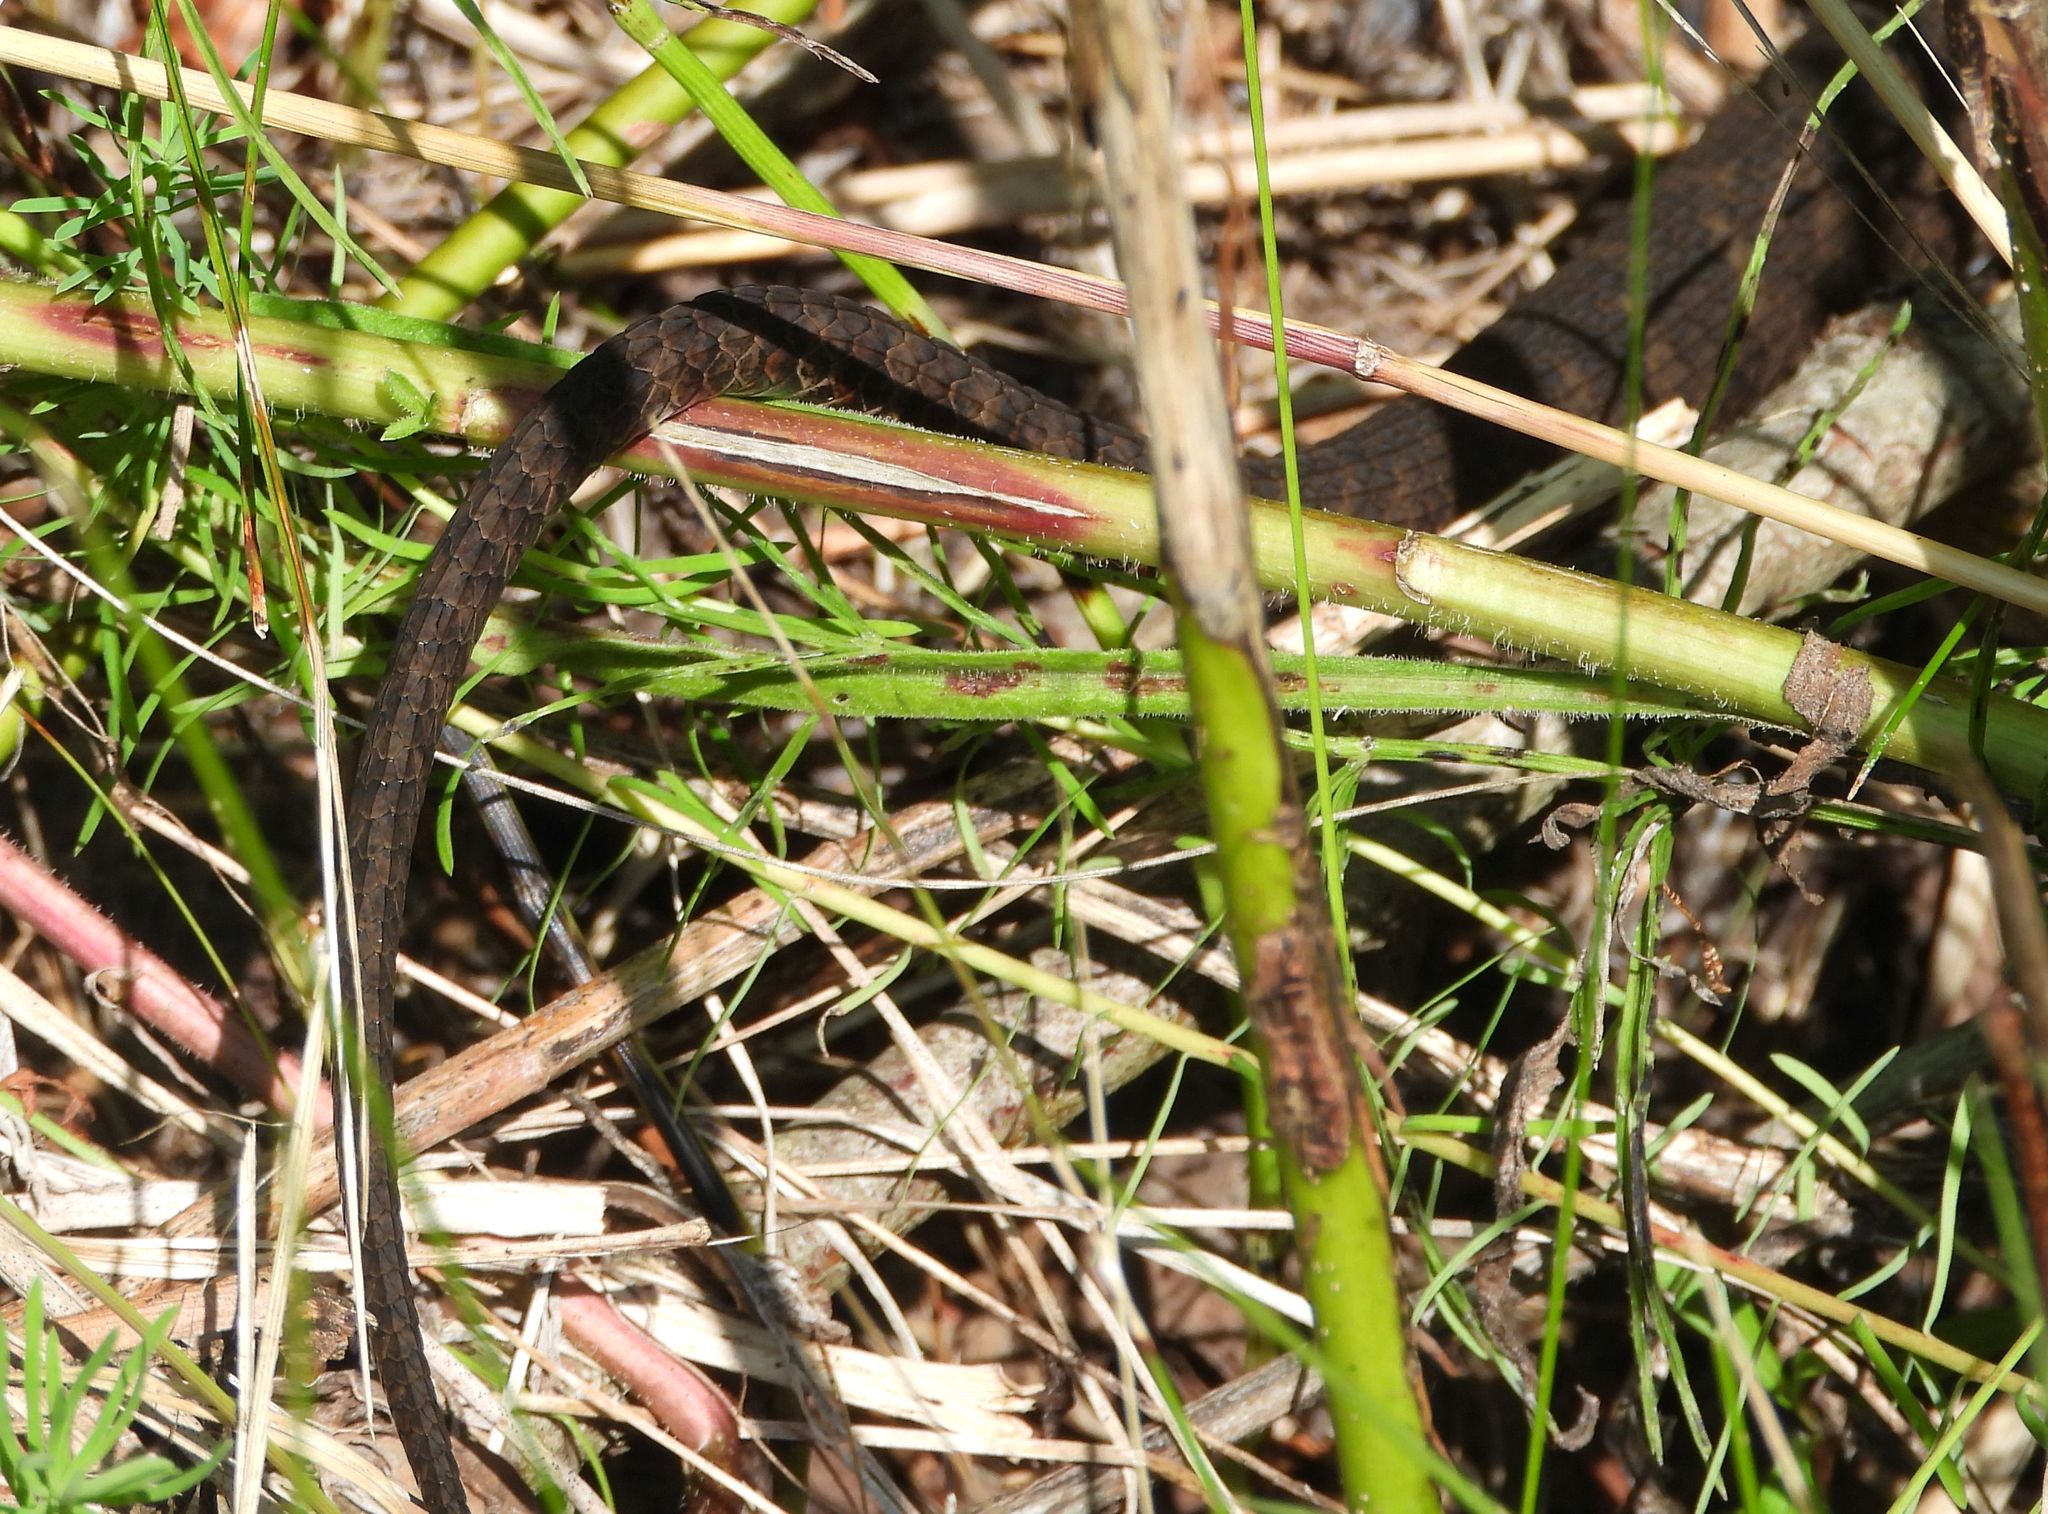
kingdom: Animalia
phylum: Chordata
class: Squamata
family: Colubridae
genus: Nerodia
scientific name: Nerodia sipedon
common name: Northern water snake
